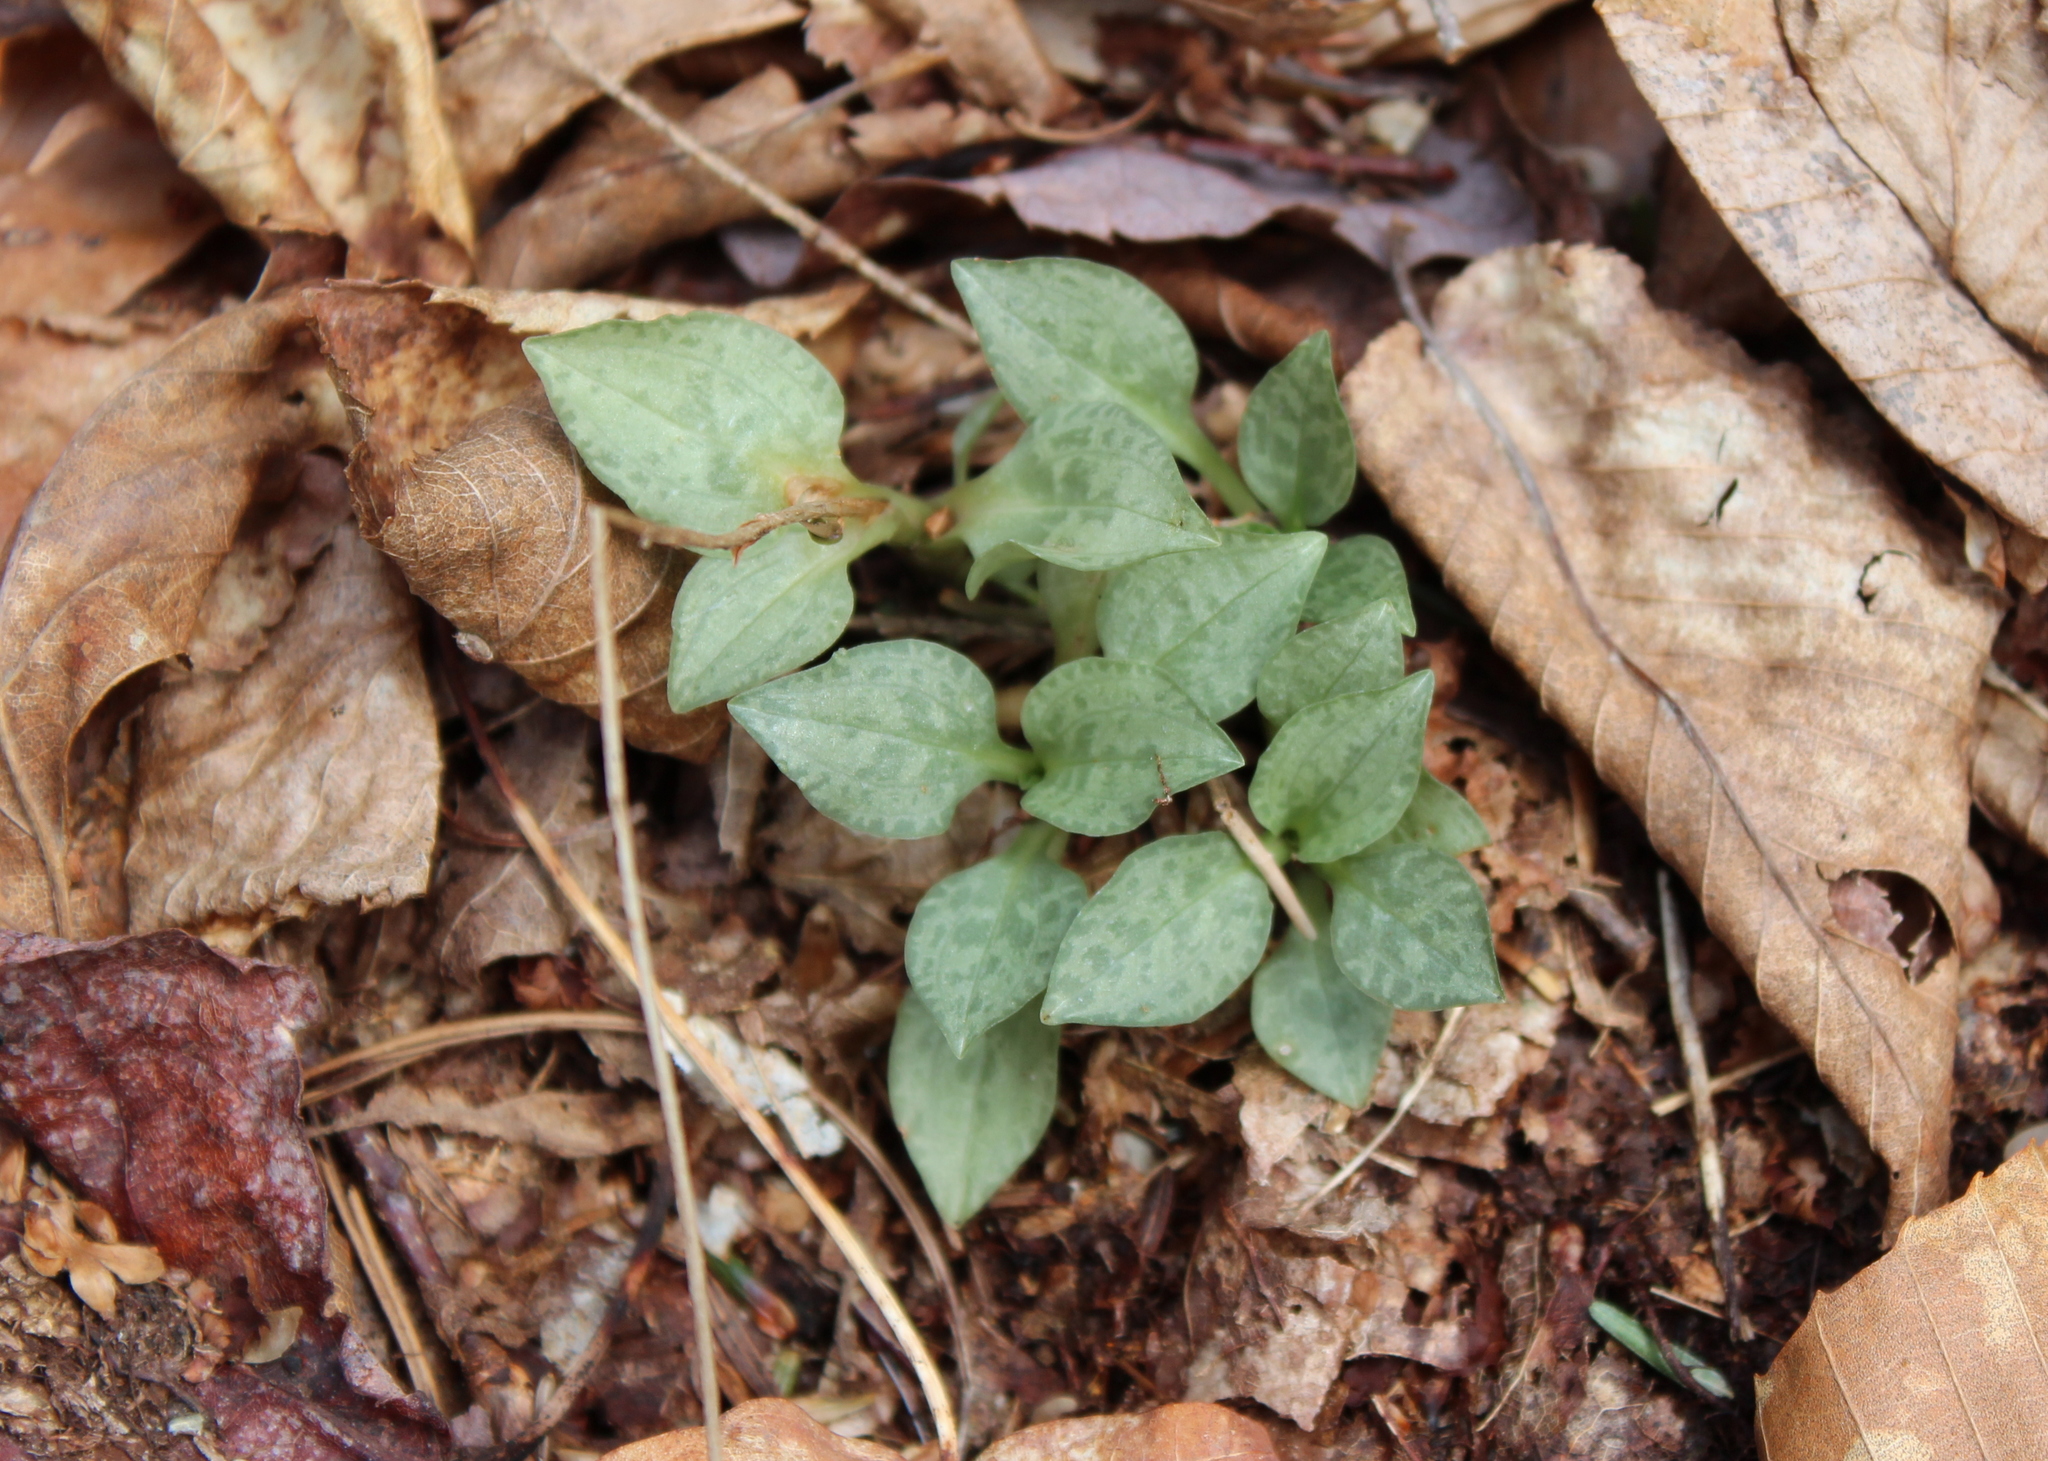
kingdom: Plantae
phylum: Tracheophyta
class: Liliopsida
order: Asparagales
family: Orchidaceae
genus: Goodyera
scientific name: Goodyera tesselata
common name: Checkered rattlesnake-plantain
